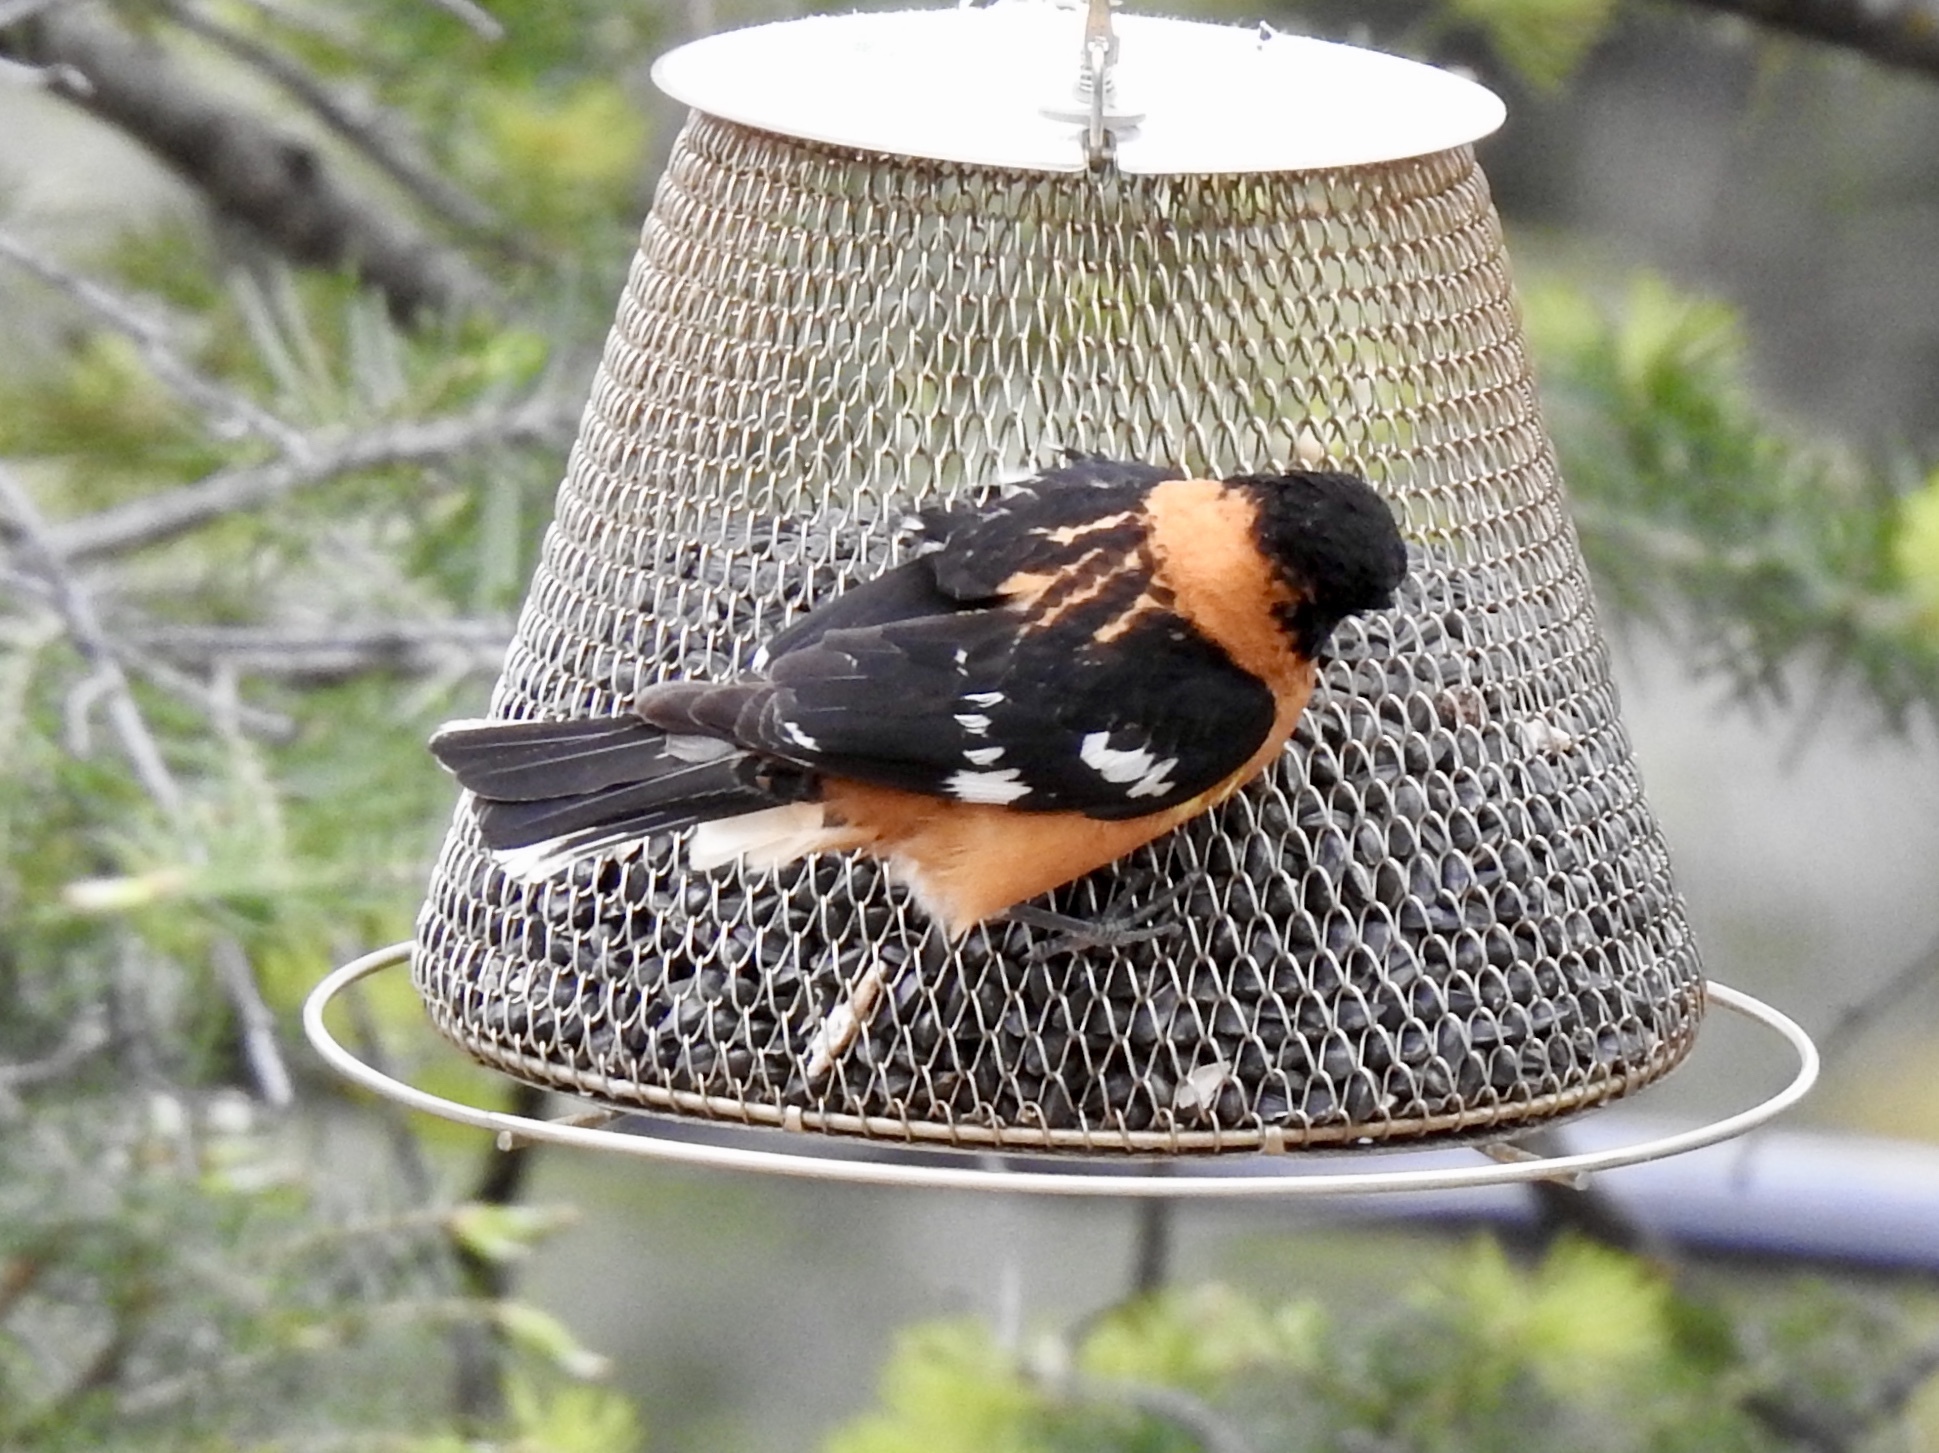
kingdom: Animalia
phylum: Chordata
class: Aves
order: Passeriformes
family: Cardinalidae
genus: Pheucticus
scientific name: Pheucticus melanocephalus
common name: Black-headed grosbeak
